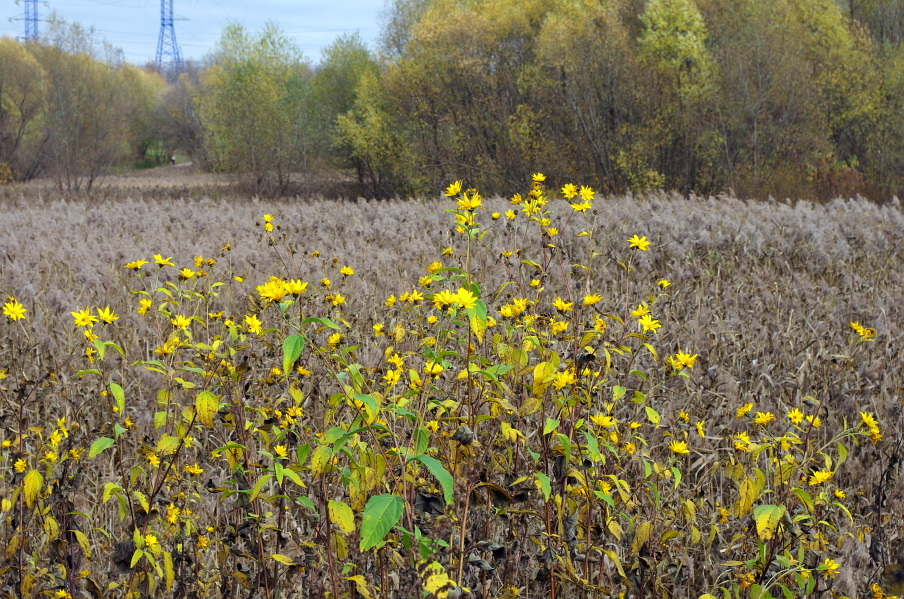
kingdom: Plantae
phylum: Tracheophyta
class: Magnoliopsida
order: Asterales
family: Asteraceae
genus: Helianthus
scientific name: Helianthus tuberosus
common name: Jerusalem artichoke
